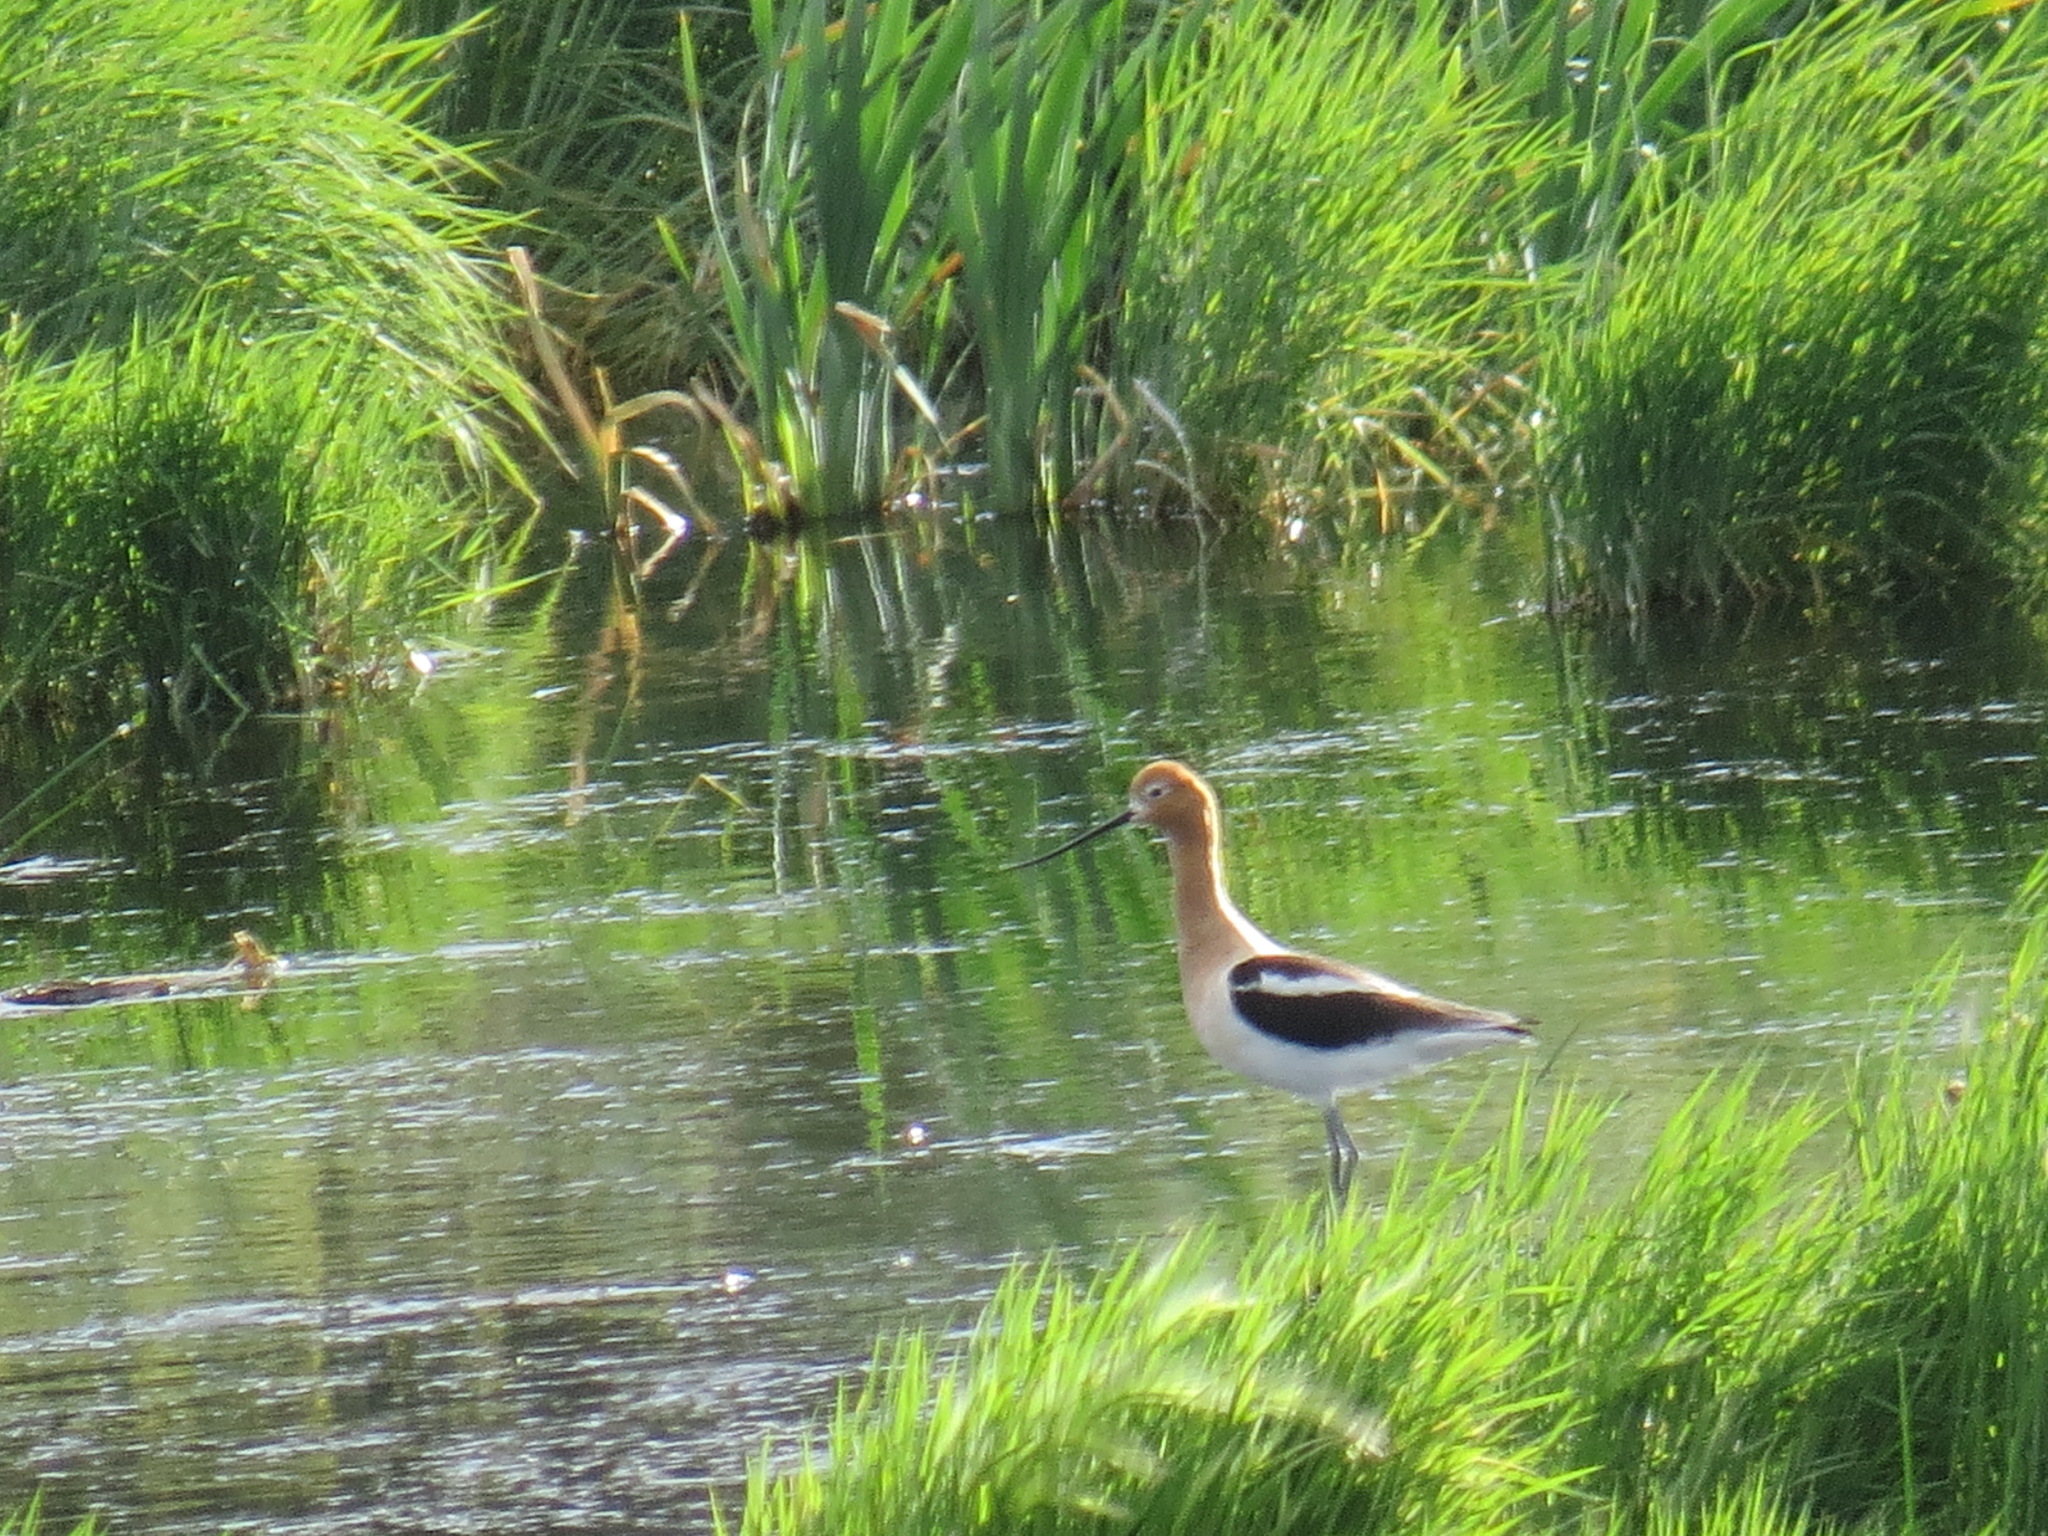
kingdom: Animalia
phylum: Chordata
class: Aves
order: Charadriiformes
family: Recurvirostridae
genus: Recurvirostra
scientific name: Recurvirostra americana
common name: American avocet
